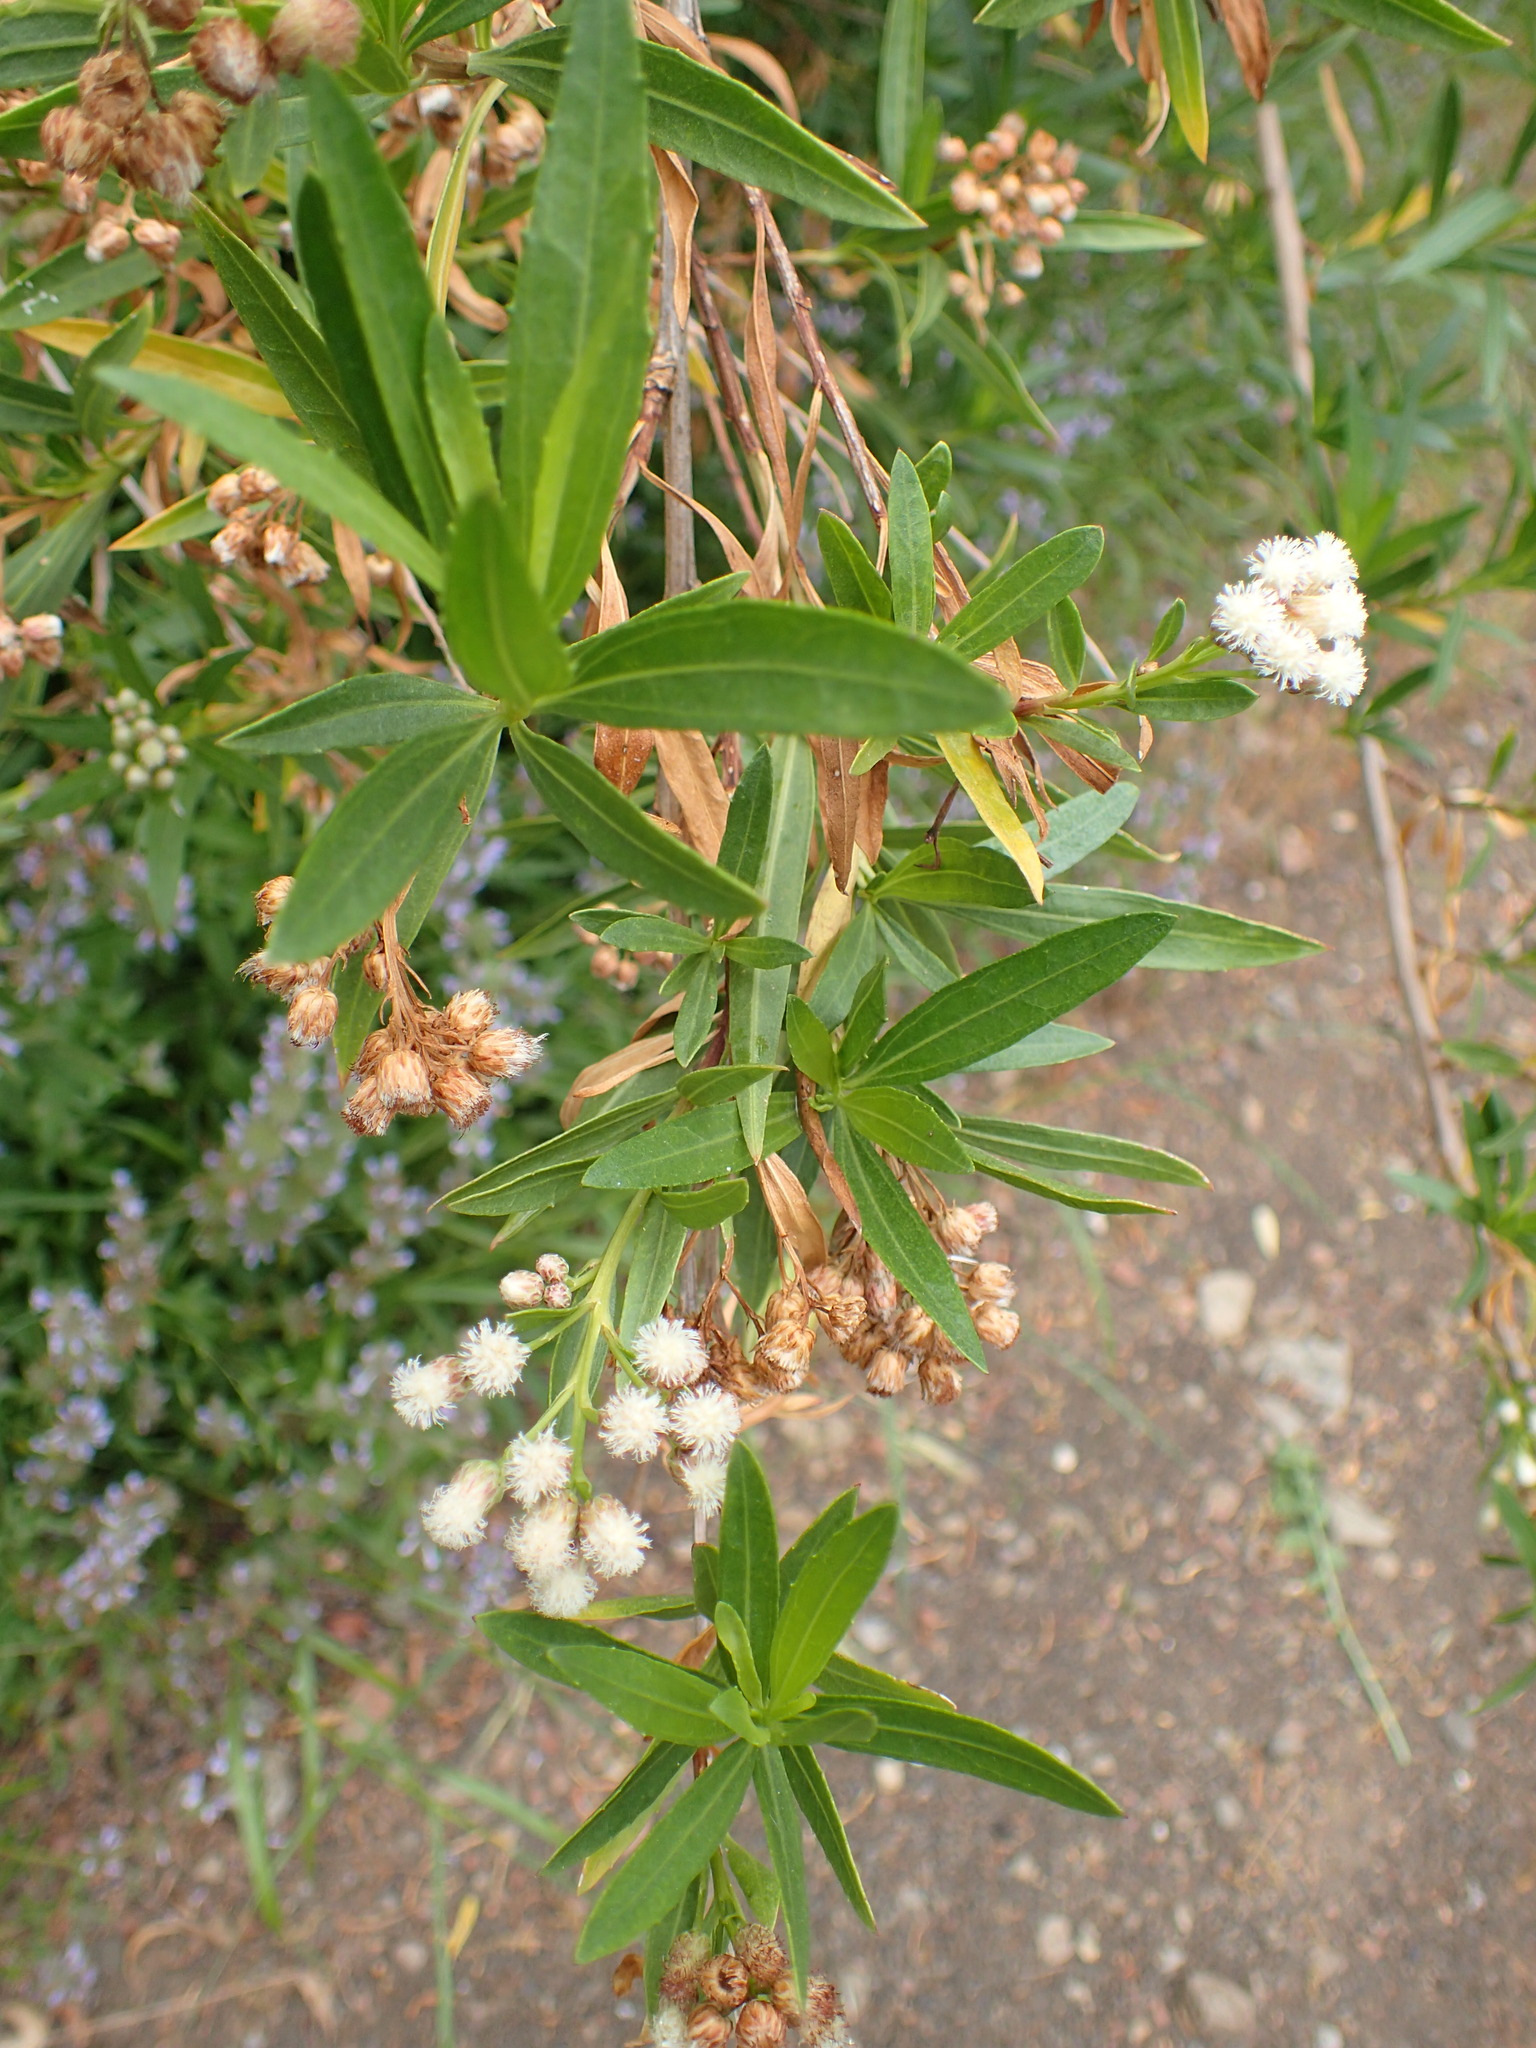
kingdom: Plantae
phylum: Tracheophyta
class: Magnoliopsida
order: Asterales
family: Asteraceae
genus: Baccharis
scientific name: Baccharis salicifolia
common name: Sticky baccharis
